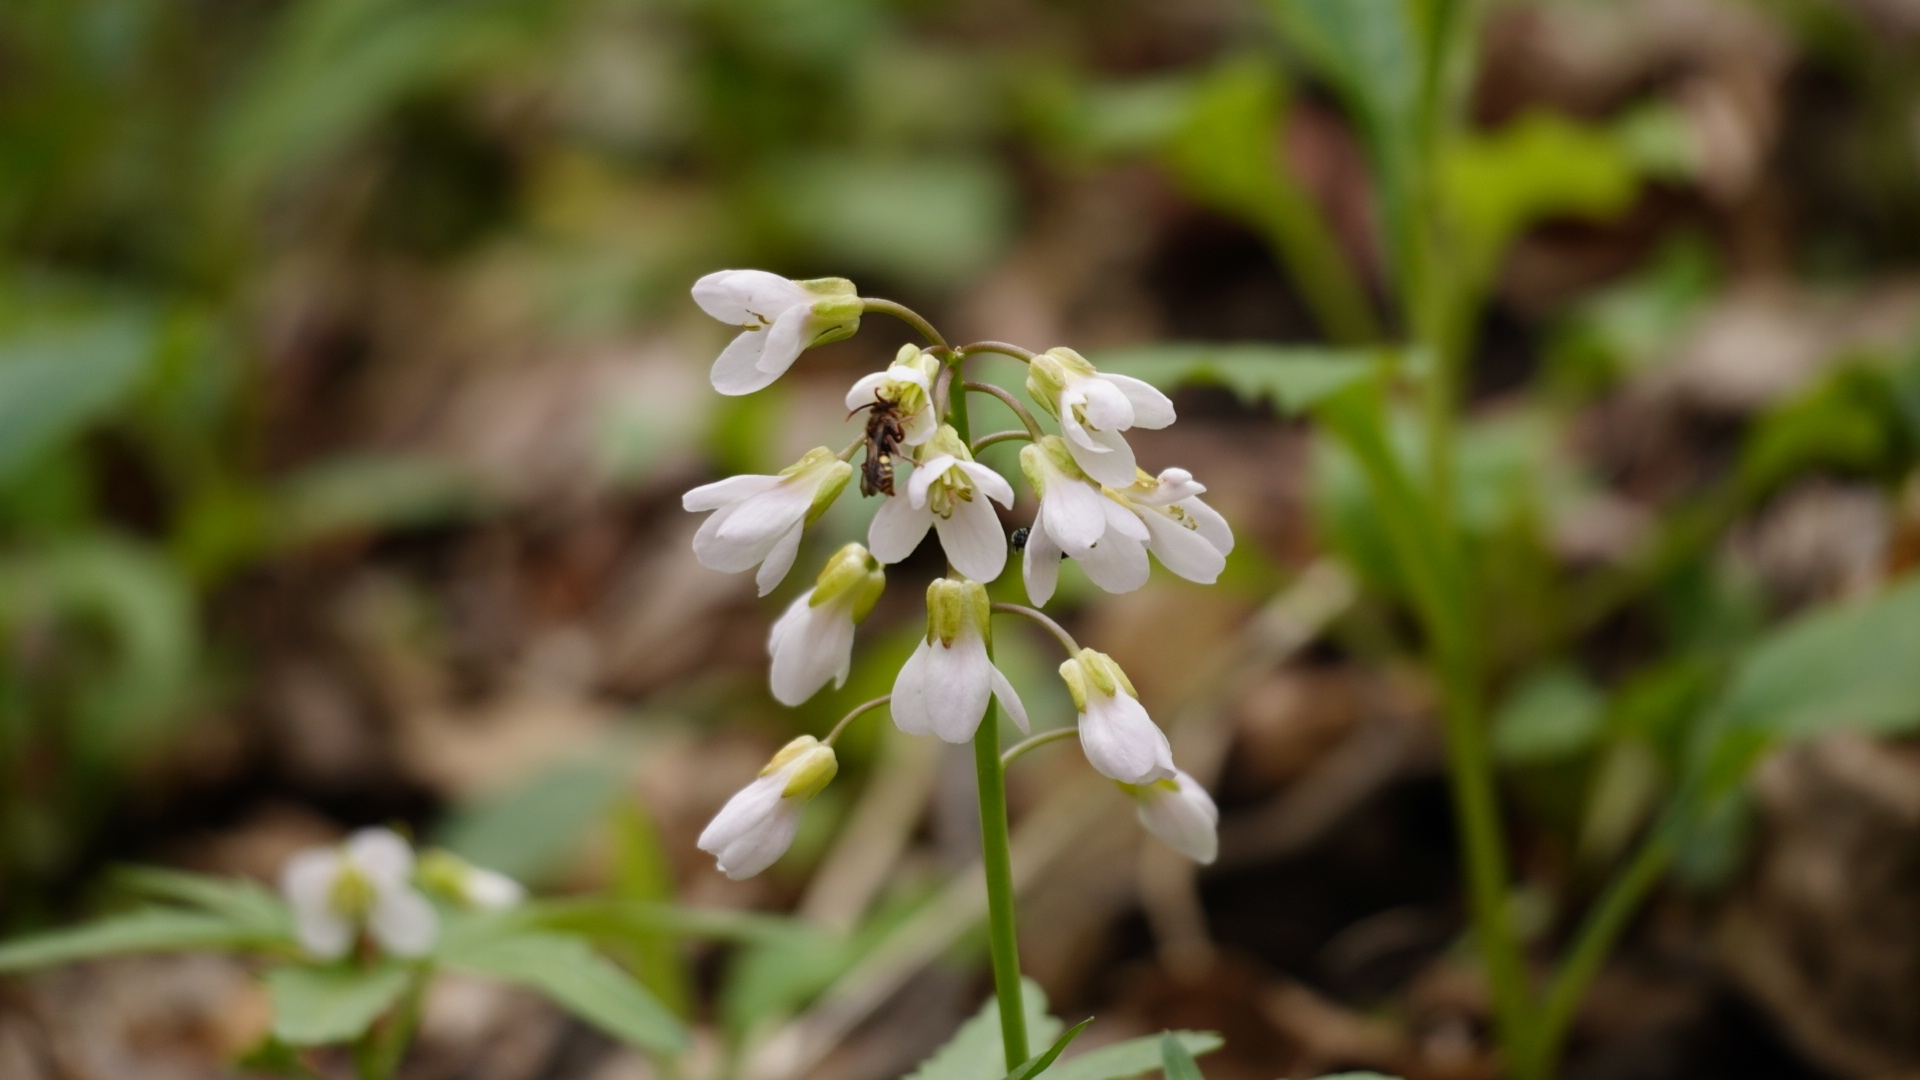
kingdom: Plantae
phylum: Tracheophyta
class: Magnoliopsida
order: Brassicales
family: Brassicaceae
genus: Cardamine
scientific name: Cardamine concatenata
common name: Cut-leaf toothcup
